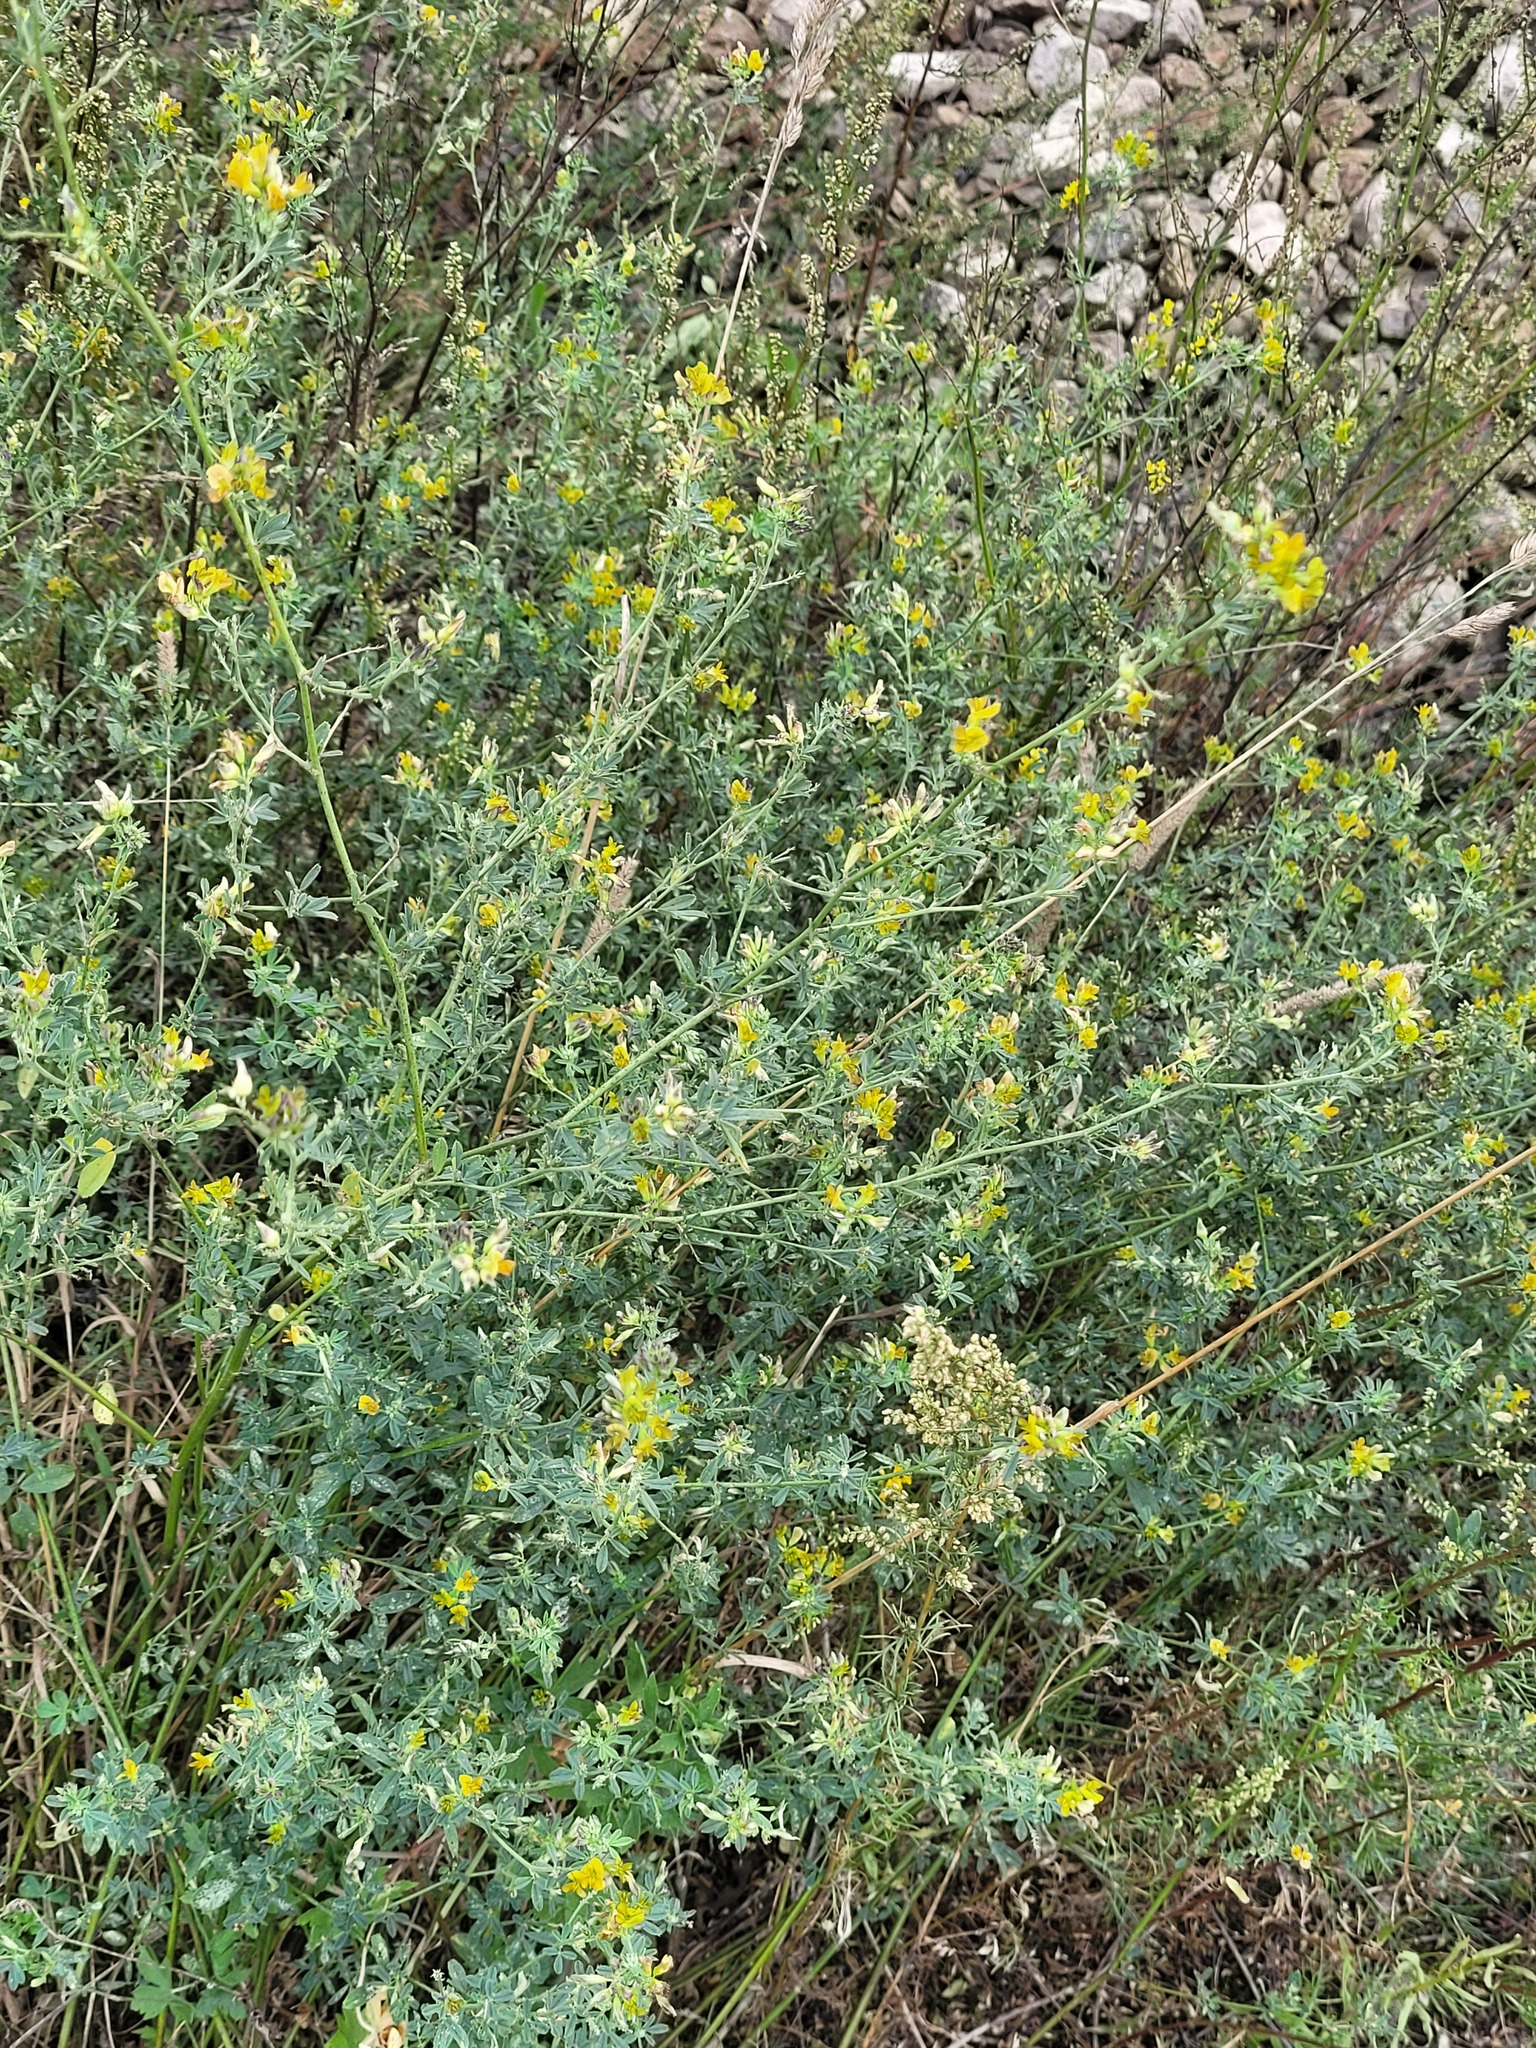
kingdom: Plantae
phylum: Tracheophyta
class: Magnoliopsida
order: Fabales
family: Fabaceae
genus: Medicago
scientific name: Medicago varia
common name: Sand lucerne
